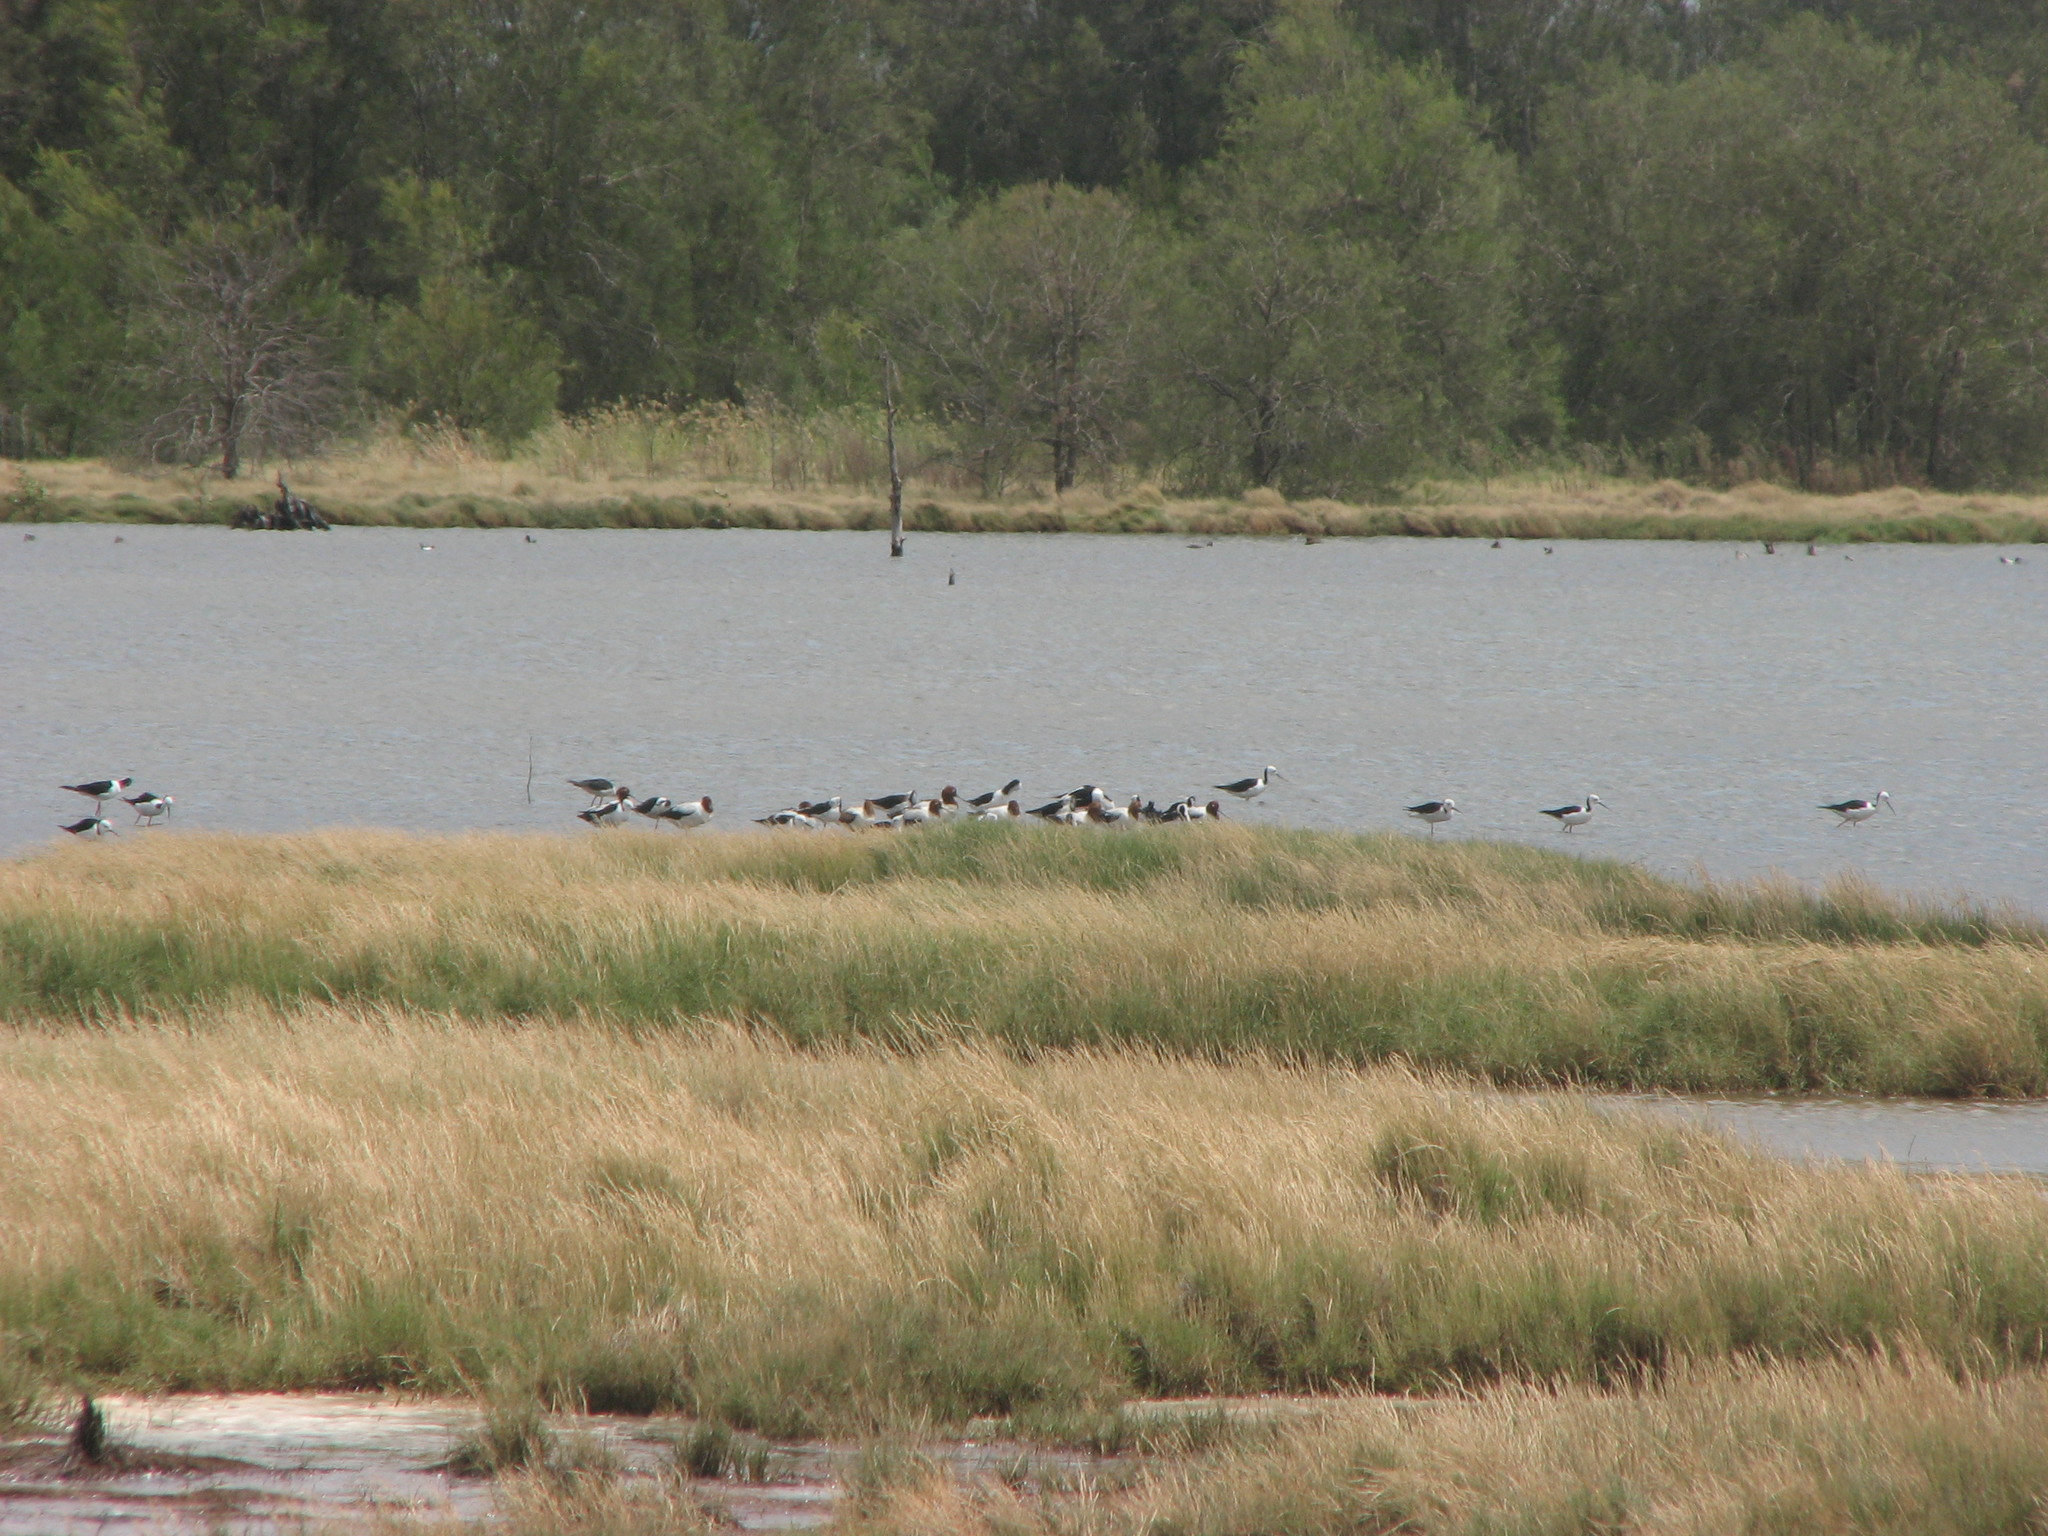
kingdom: Animalia
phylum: Chordata
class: Aves
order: Charadriiformes
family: Recurvirostridae
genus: Recurvirostra
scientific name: Recurvirostra novaehollandiae
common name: Red-necked avocet
